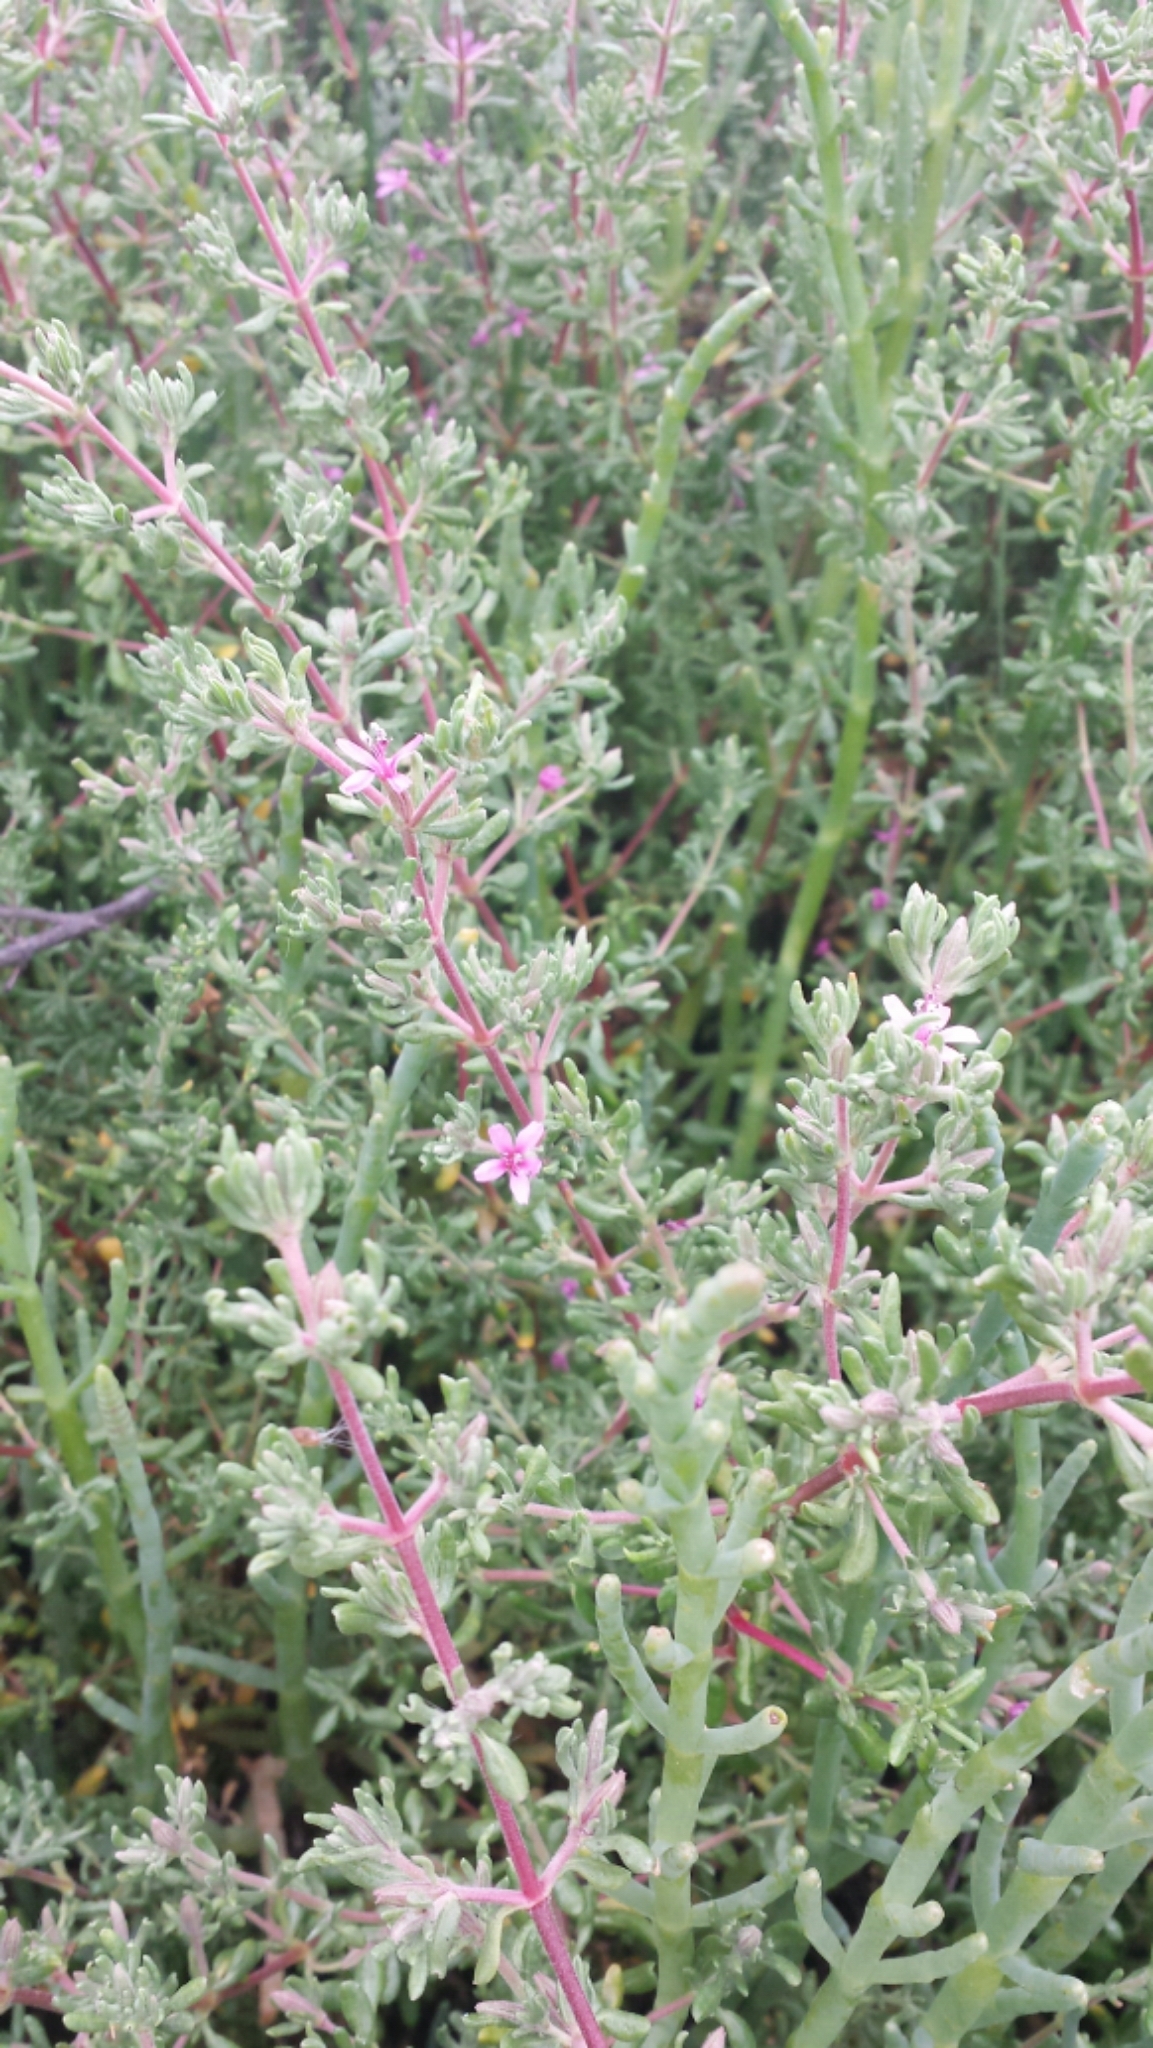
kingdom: Plantae
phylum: Tracheophyta
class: Magnoliopsida
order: Caryophyllales
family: Frankeniaceae
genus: Frankenia
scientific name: Frankenia salina
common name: Alkali seaheath
